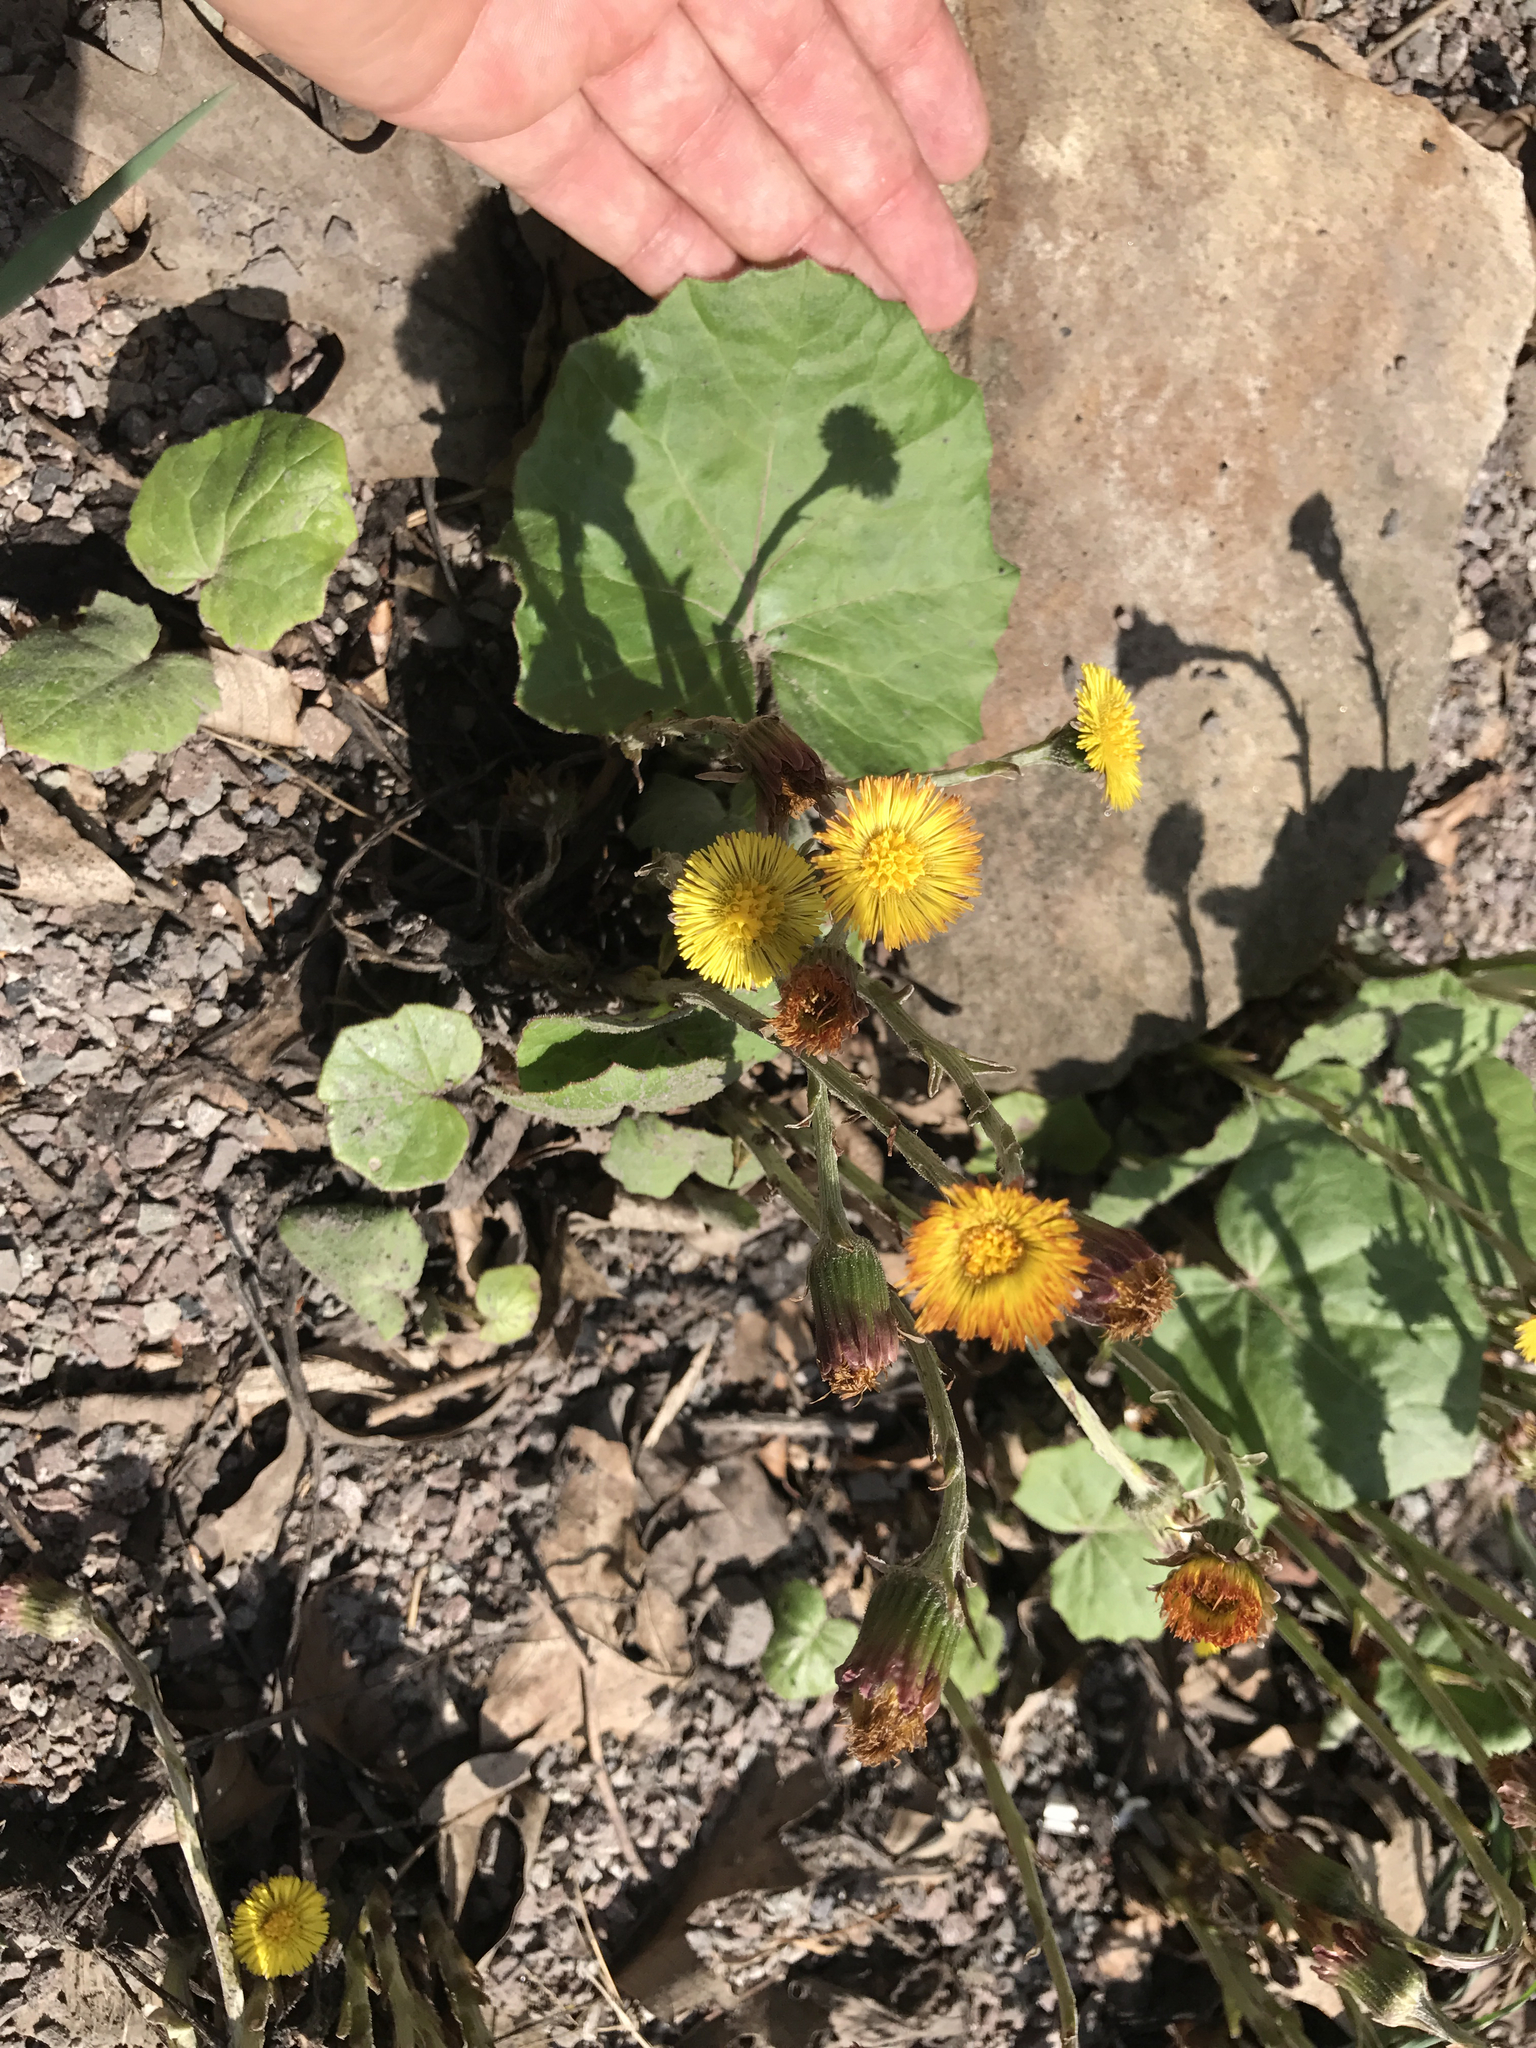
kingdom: Plantae
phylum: Tracheophyta
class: Magnoliopsida
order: Asterales
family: Asteraceae
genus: Tussilago
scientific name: Tussilago farfara
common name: Coltsfoot
